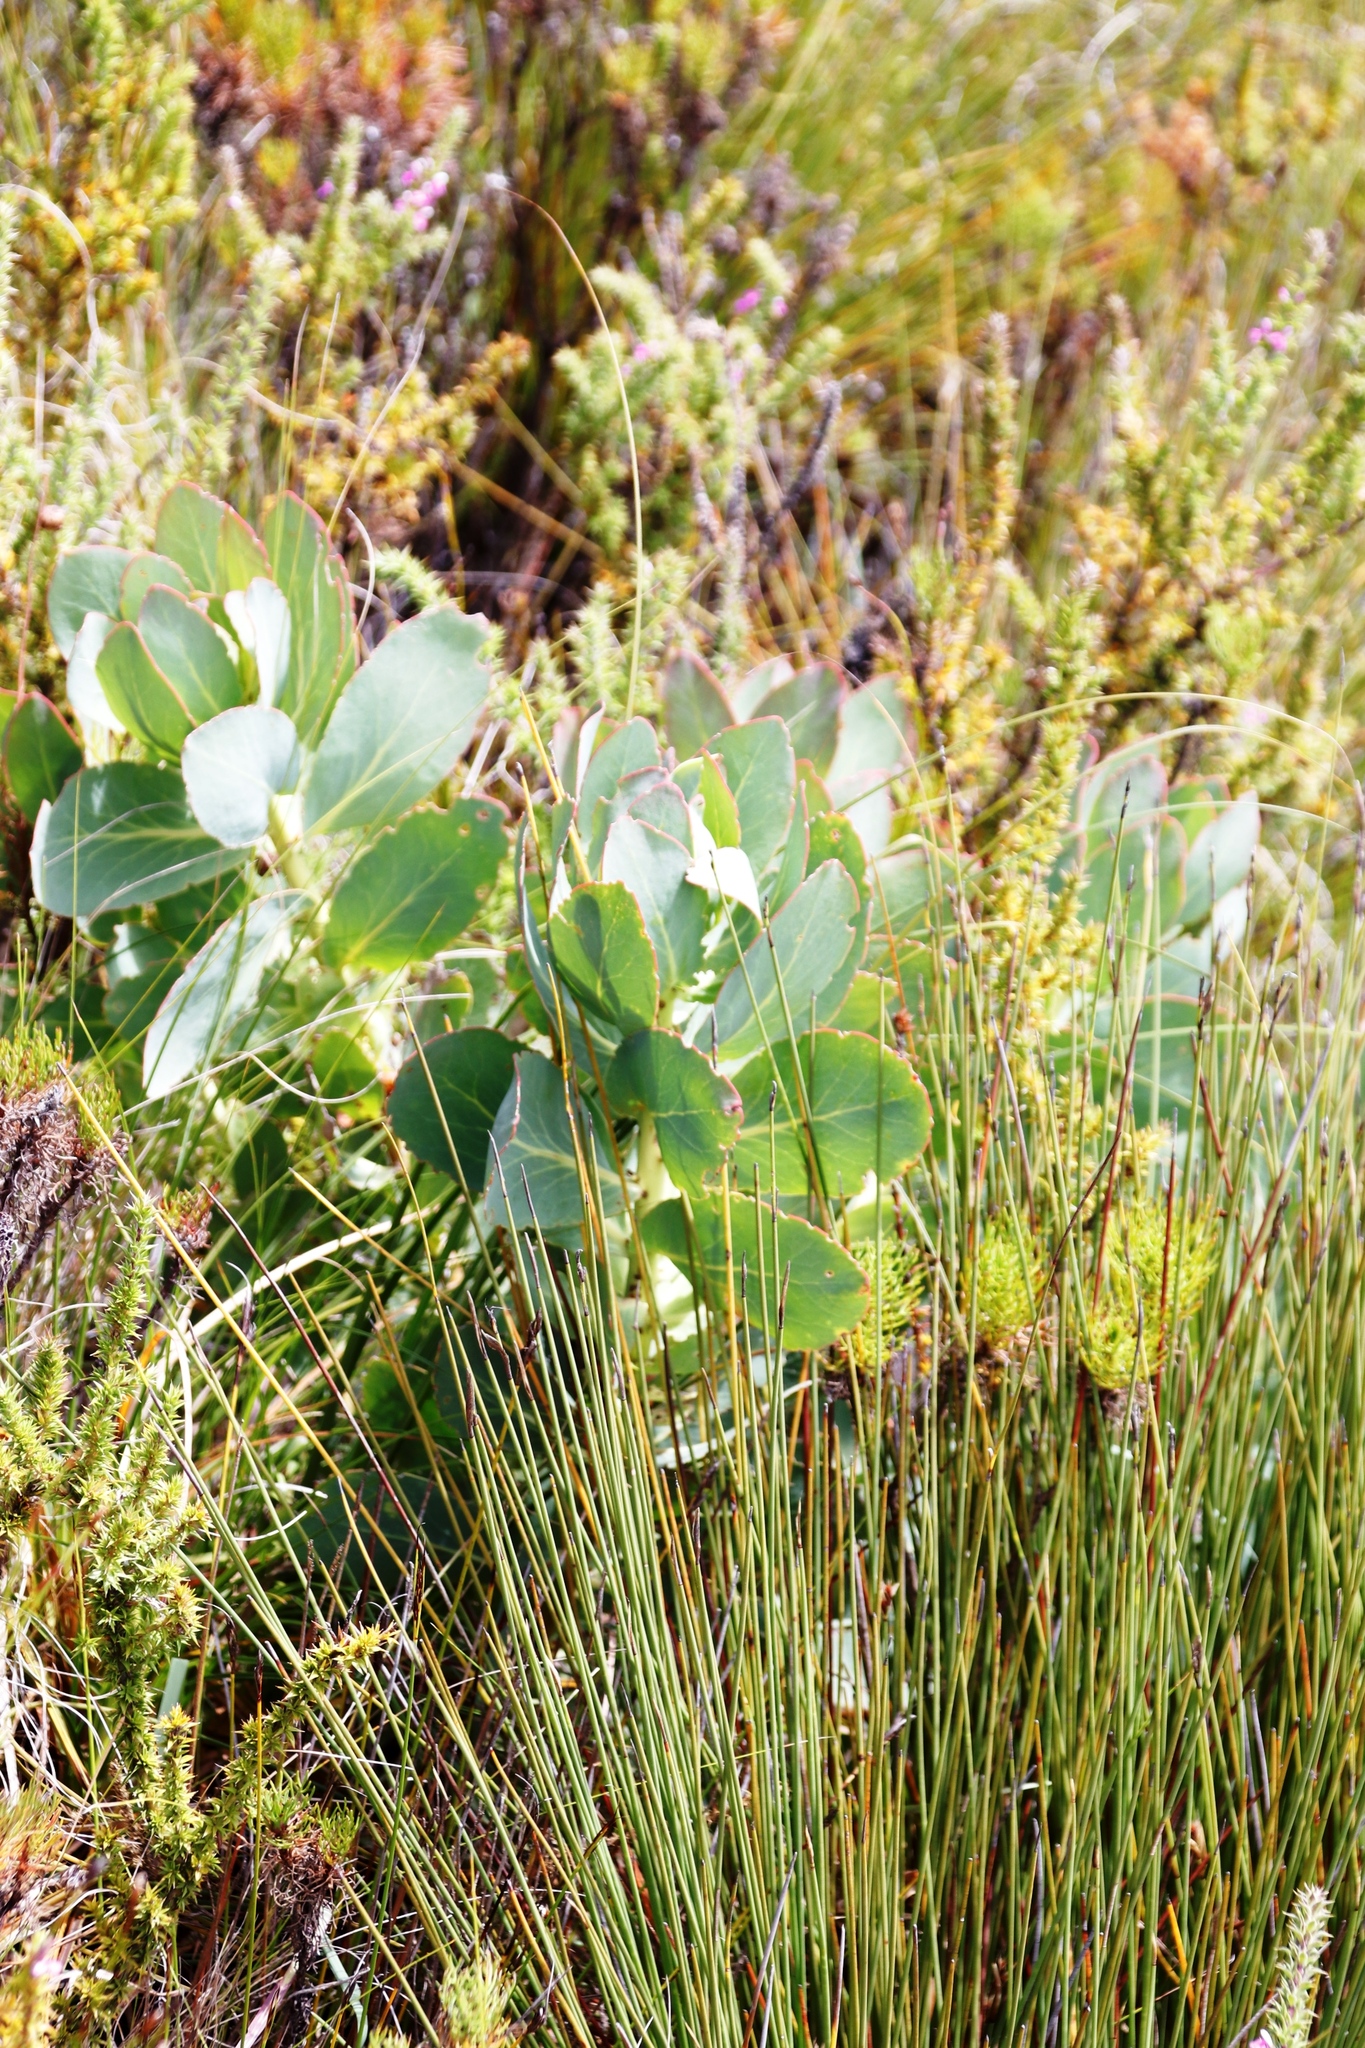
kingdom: Plantae
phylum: Tracheophyta
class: Magnoliopsida
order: Proteales
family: Proteaceae
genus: Protea
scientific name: Protea grandiceps
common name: Red sugarbush
